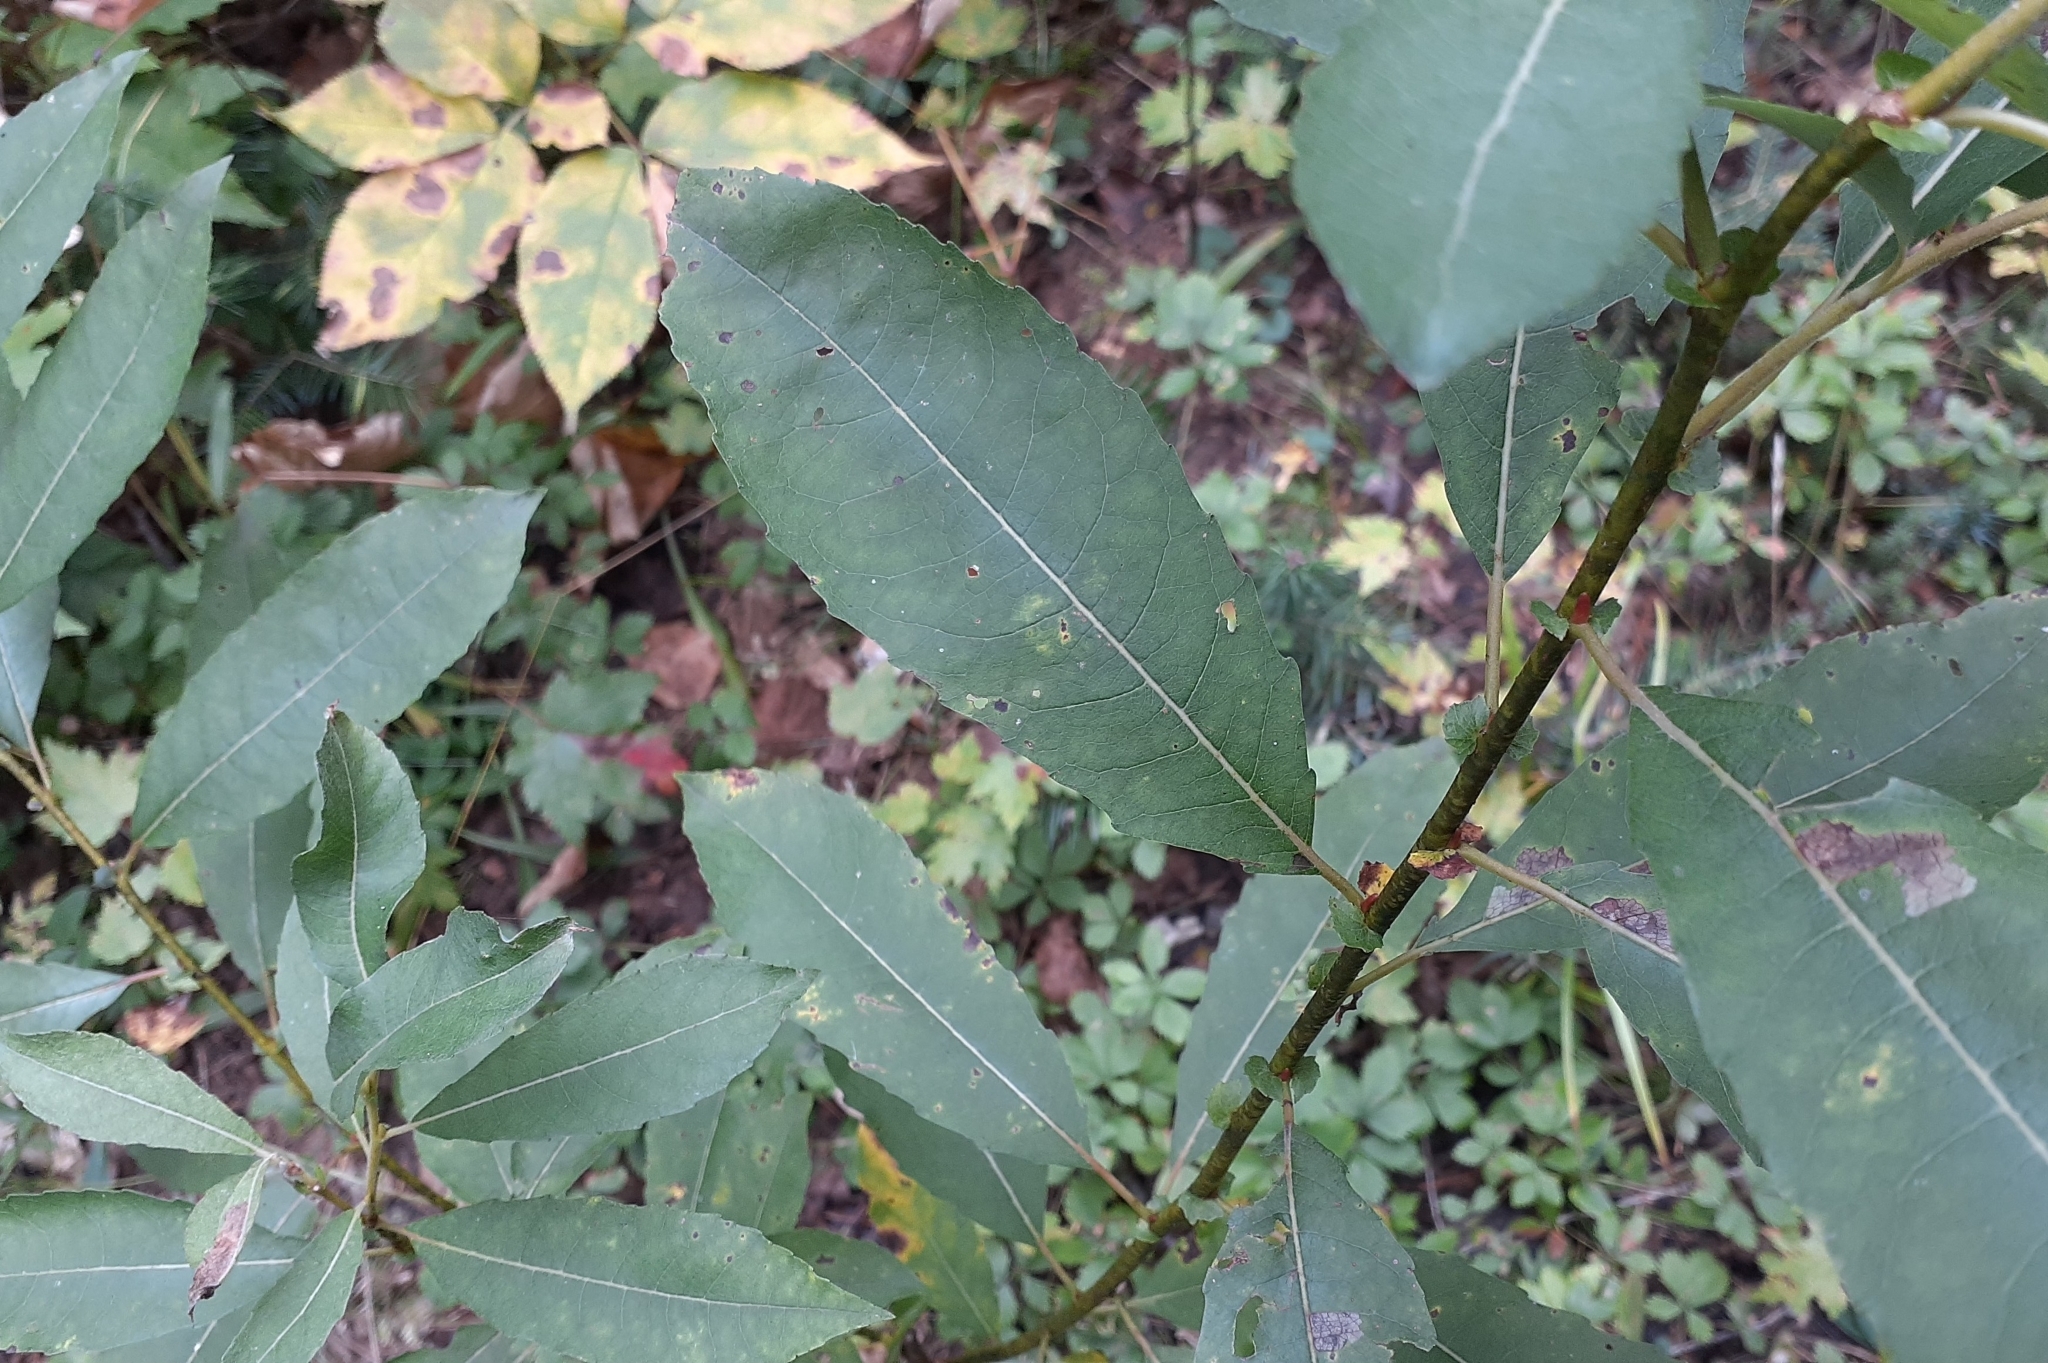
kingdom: Plantae
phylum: Tracheophyta
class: Magnoliopsida
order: Malpighiales
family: Salicaceae
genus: Salix
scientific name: Salix discolor
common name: Glaucous willow
